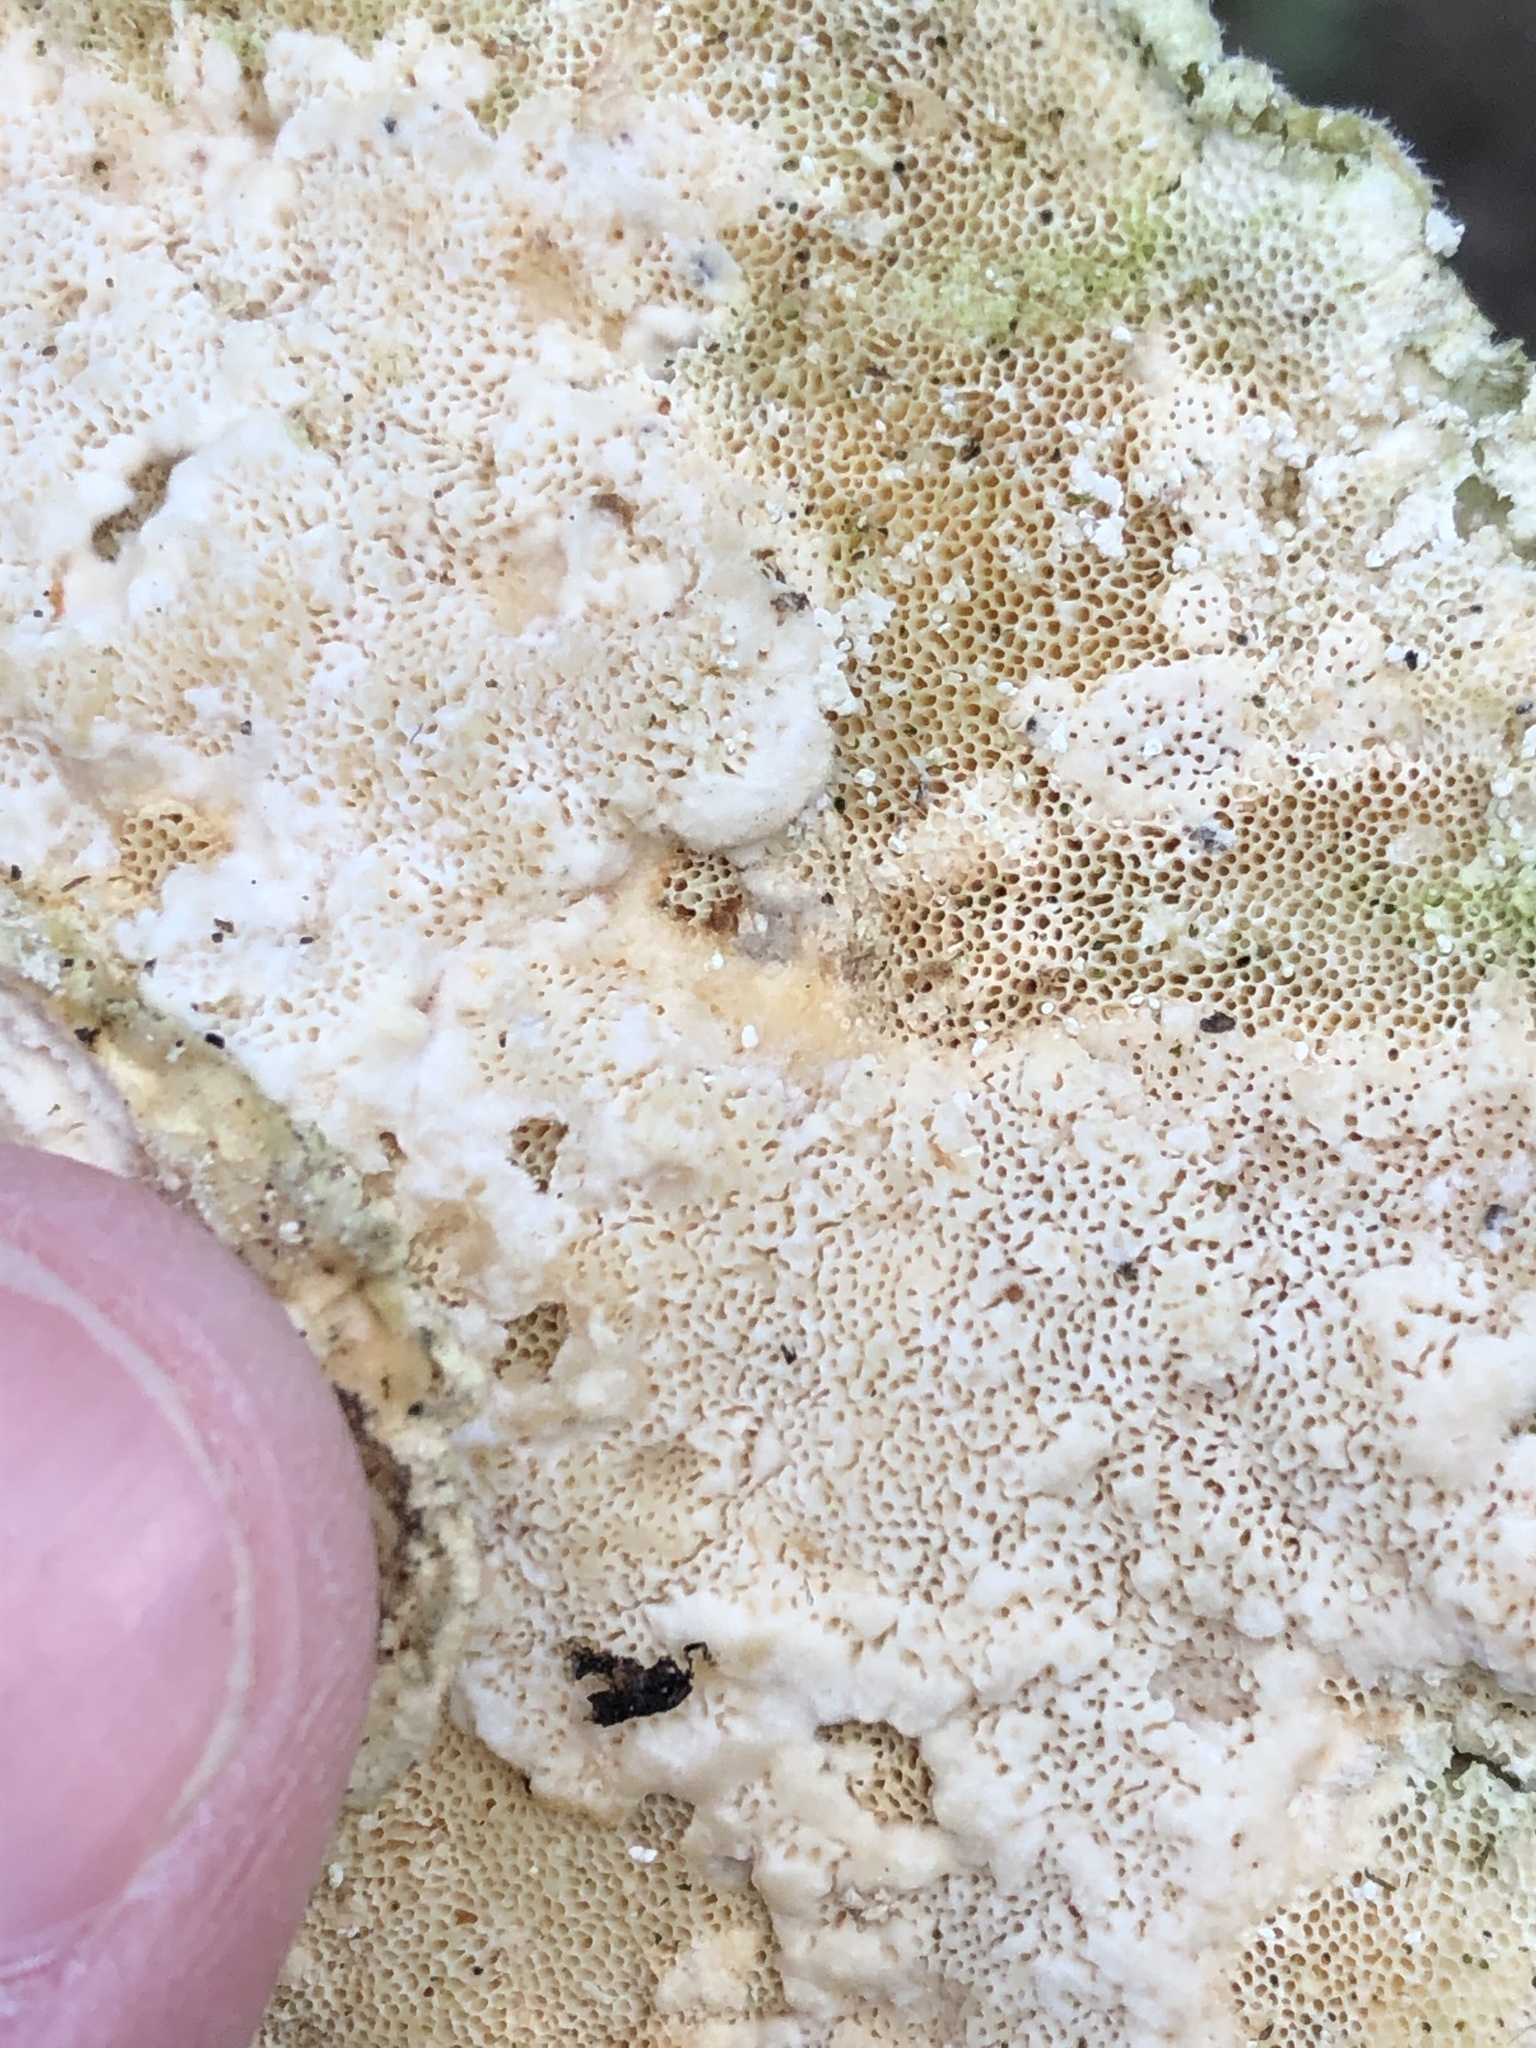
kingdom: Fungi
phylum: Basidiomycota
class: Agaricomycetes
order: Polyporales
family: Polyporaceae
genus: Trametes
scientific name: Trametes hirsuta
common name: Hairy bracket
